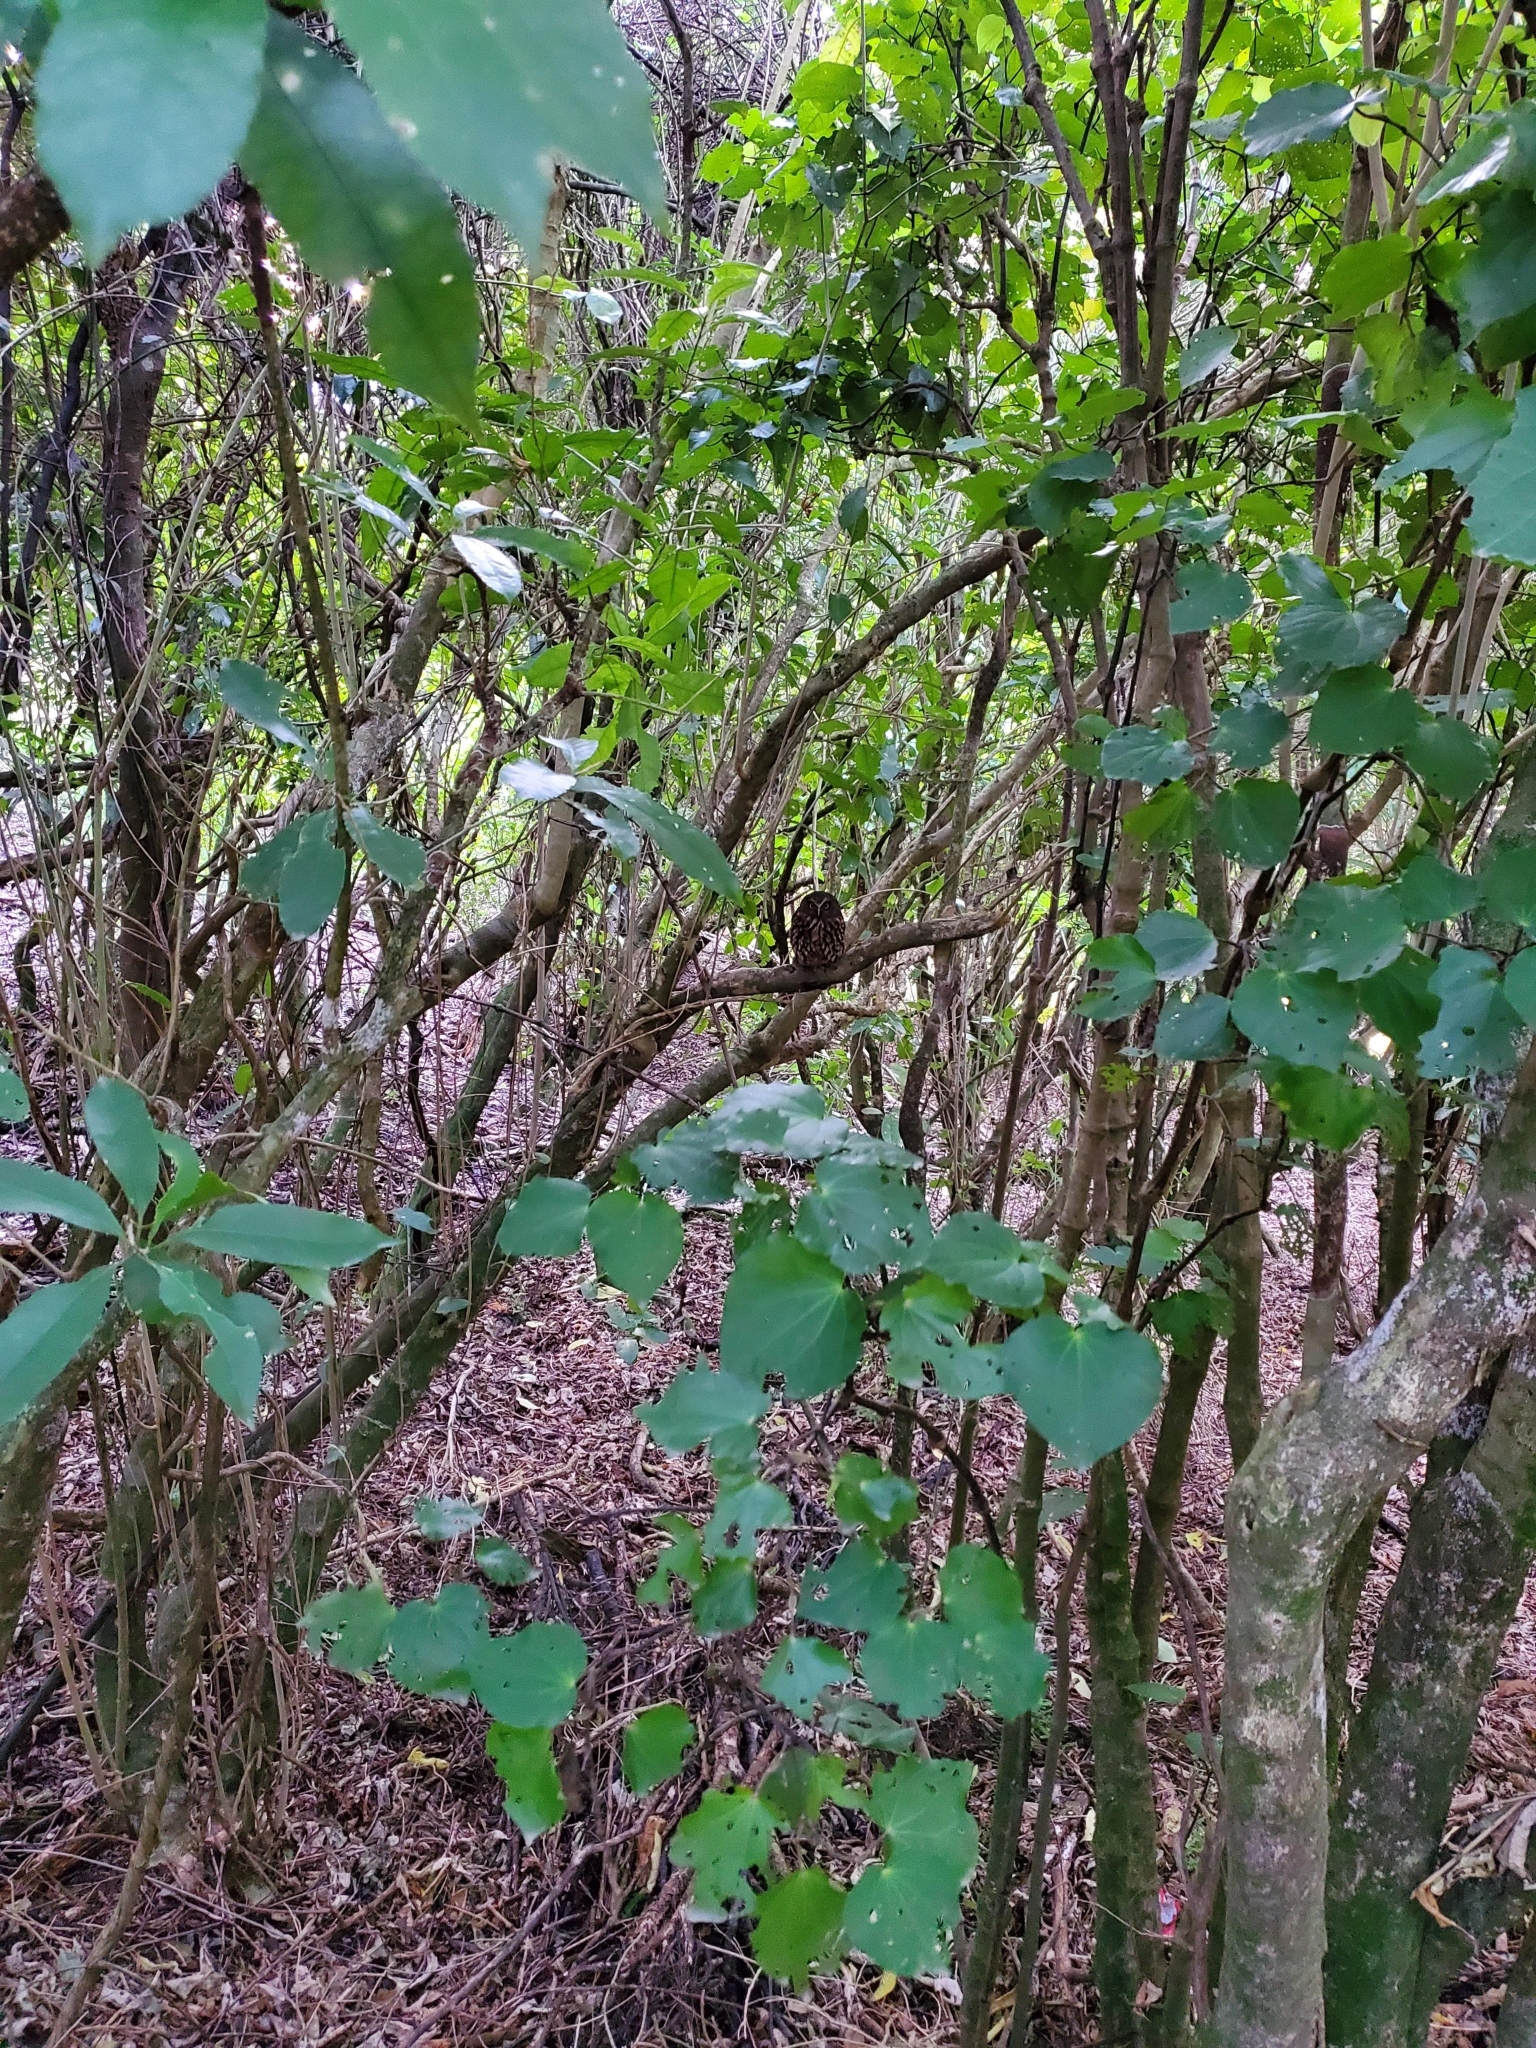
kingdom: Animalia
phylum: Chordata
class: Aves
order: Strigiformes
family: Strigidae
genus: Ninox
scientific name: Ninox novaeseelandiae
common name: Morepork
